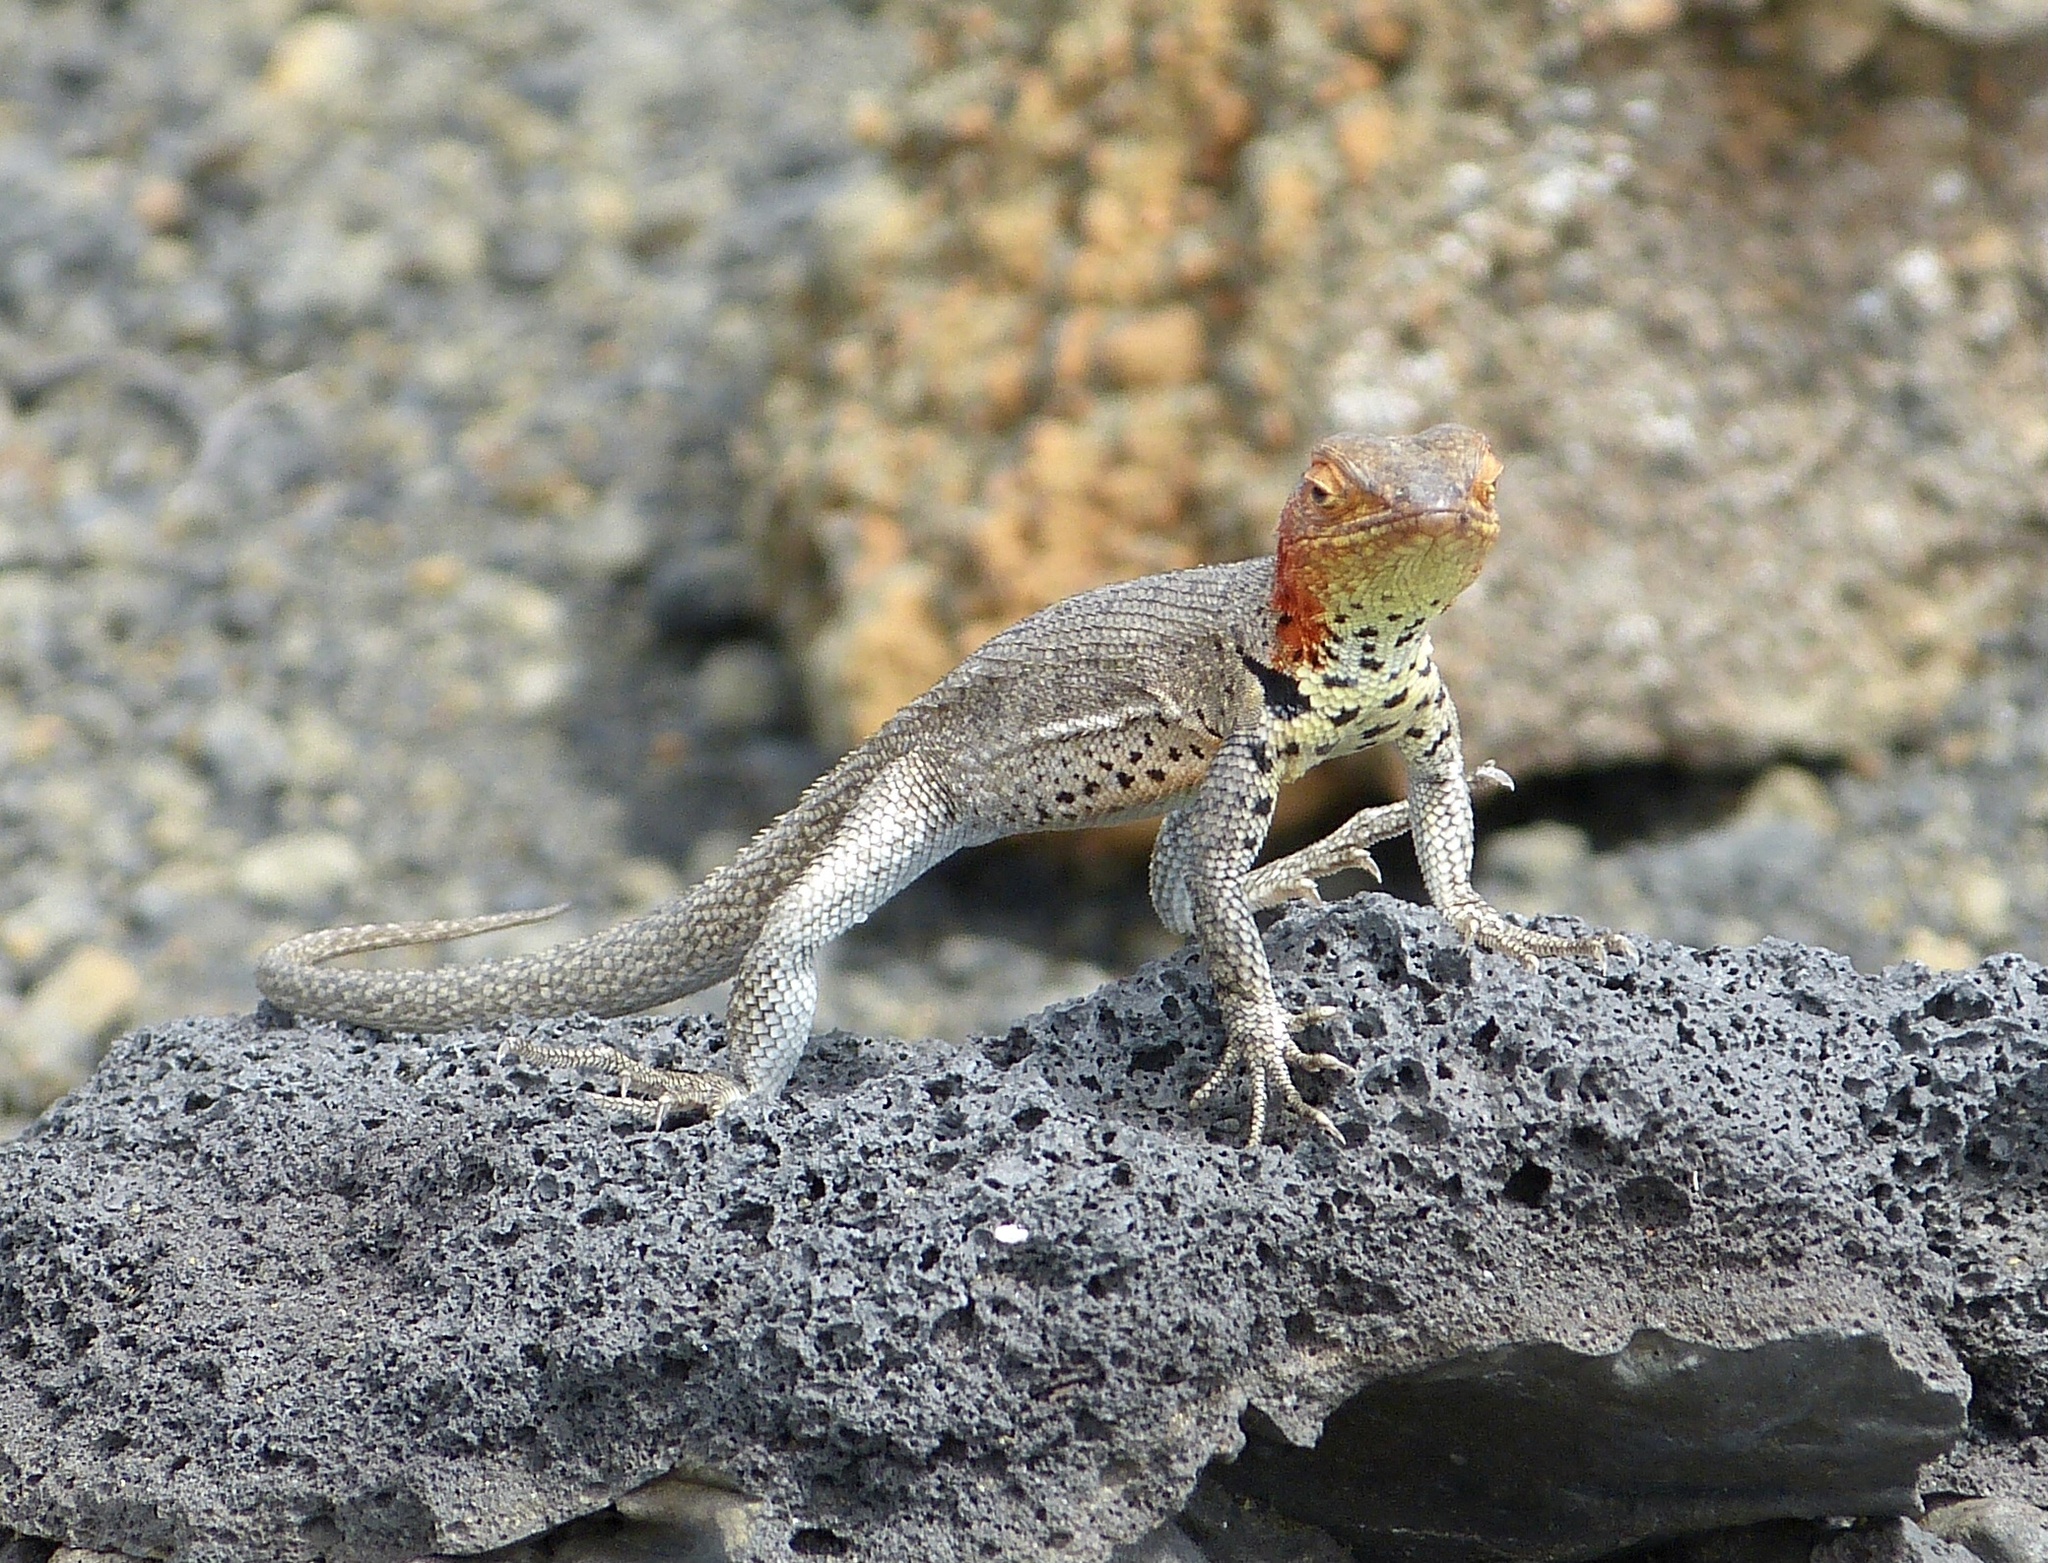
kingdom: Animalia
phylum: Chordata
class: Squamata
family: Tropiduridae
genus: Microlophus
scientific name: Microlophus jacobii
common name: Santiago lava lizard
